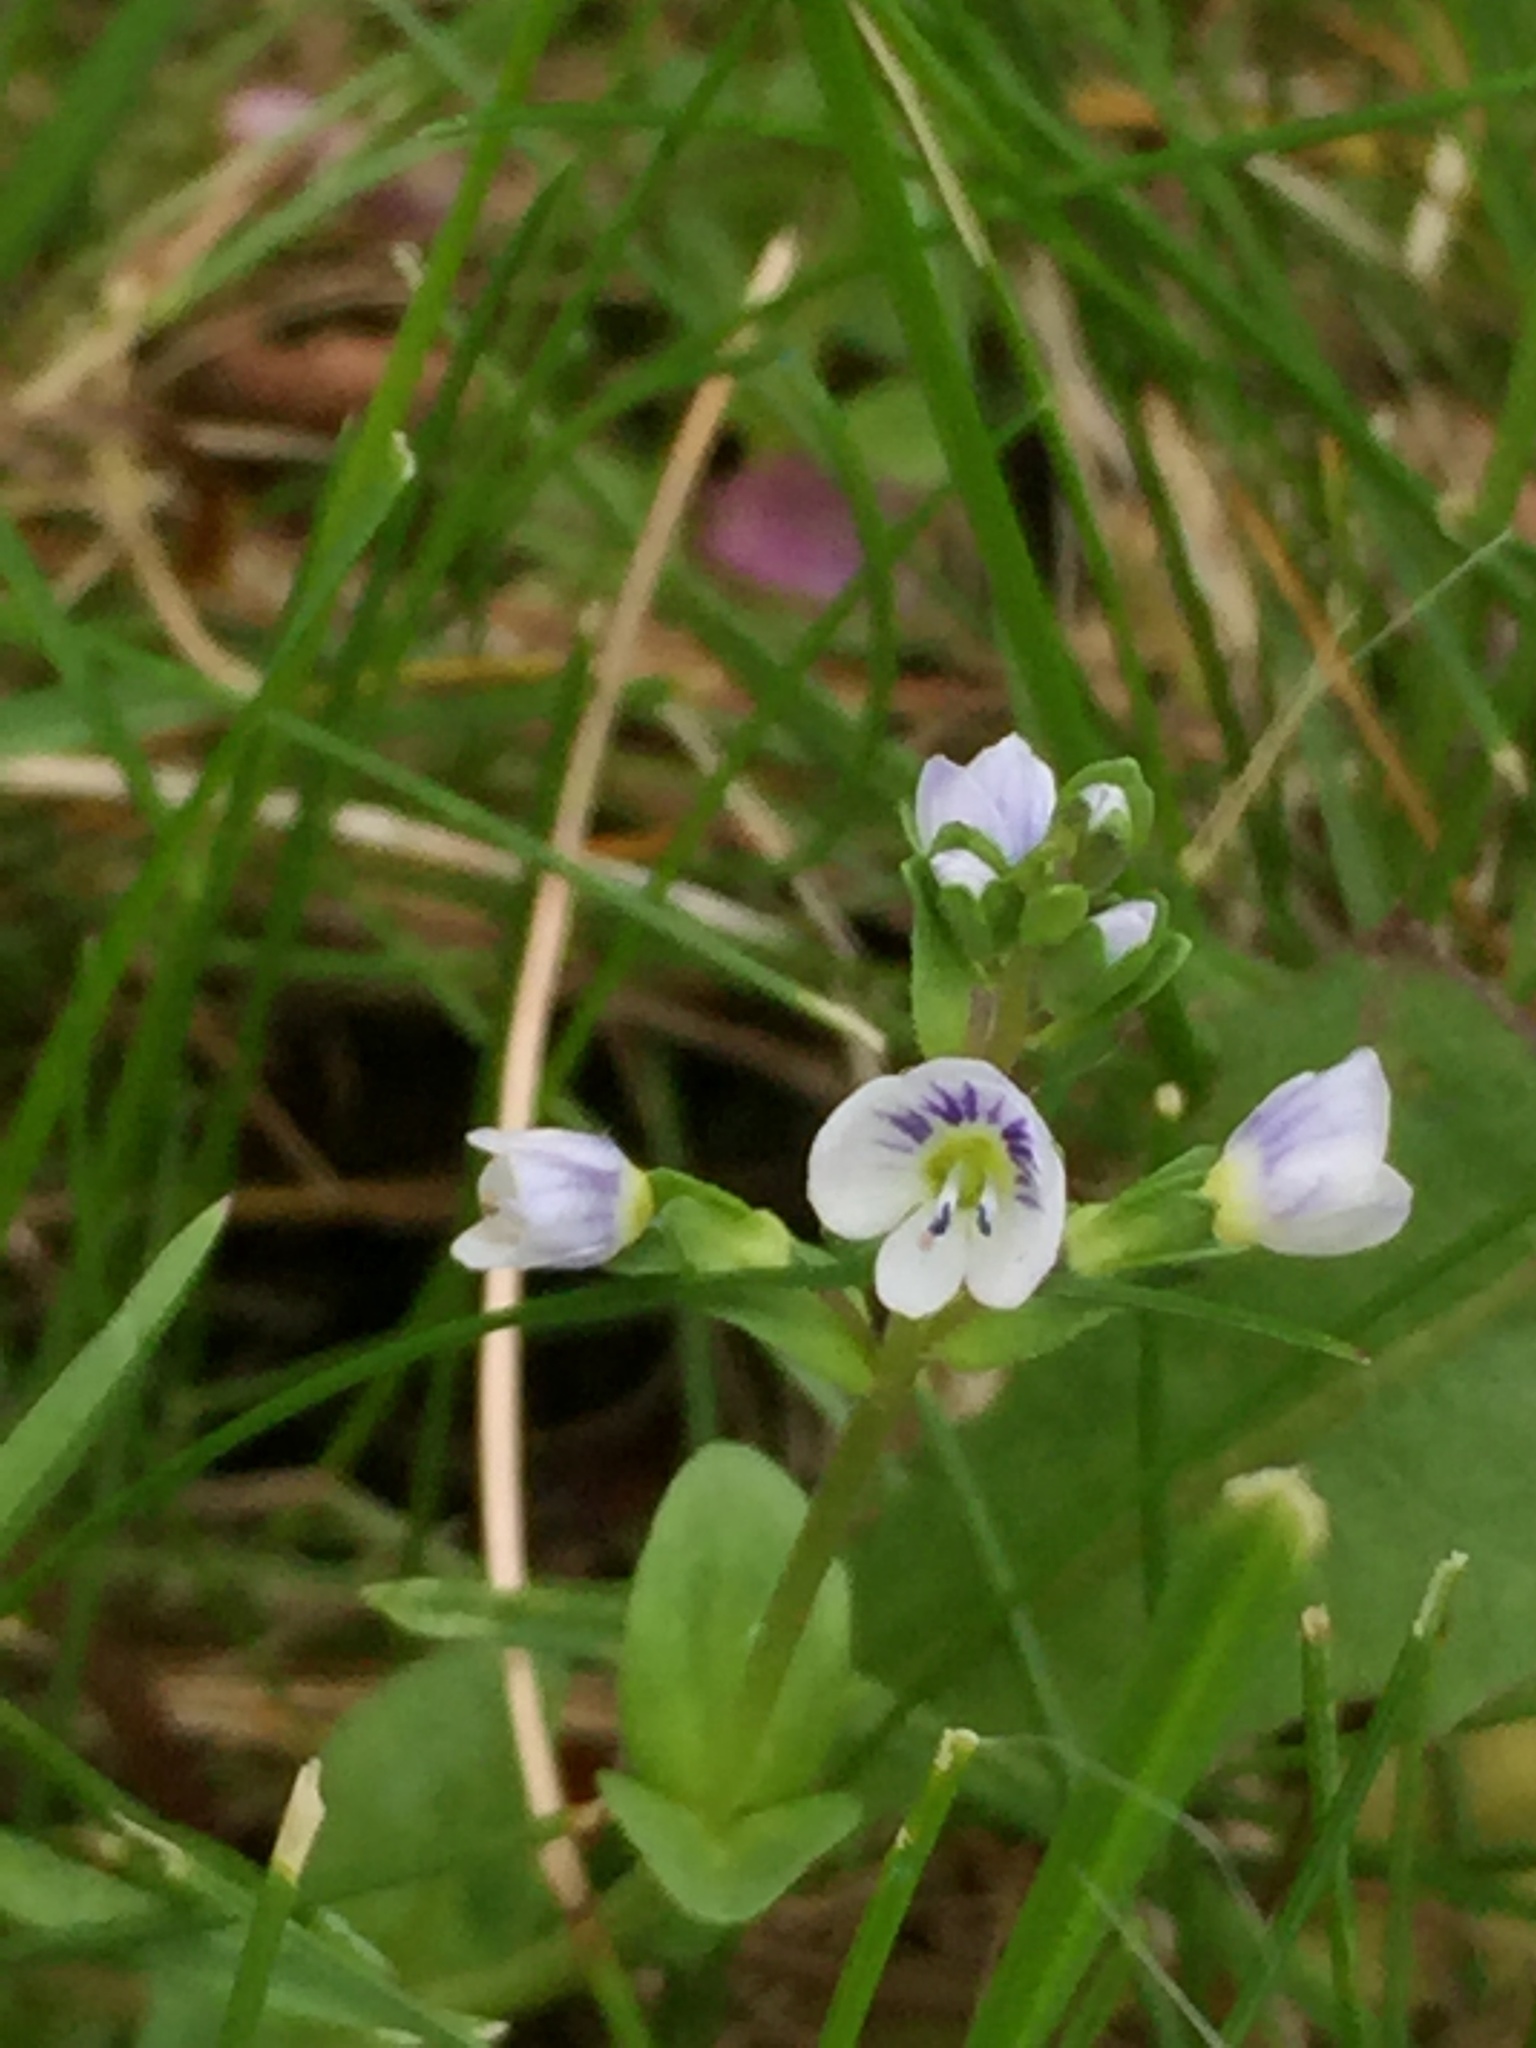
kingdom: Plantae
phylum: Tracheophyta
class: Magnoliopsida
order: Lamiales
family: Plantaginaceae
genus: Veronica
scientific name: Veronica serpyllifolia
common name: Thyme-leaved speedwell
